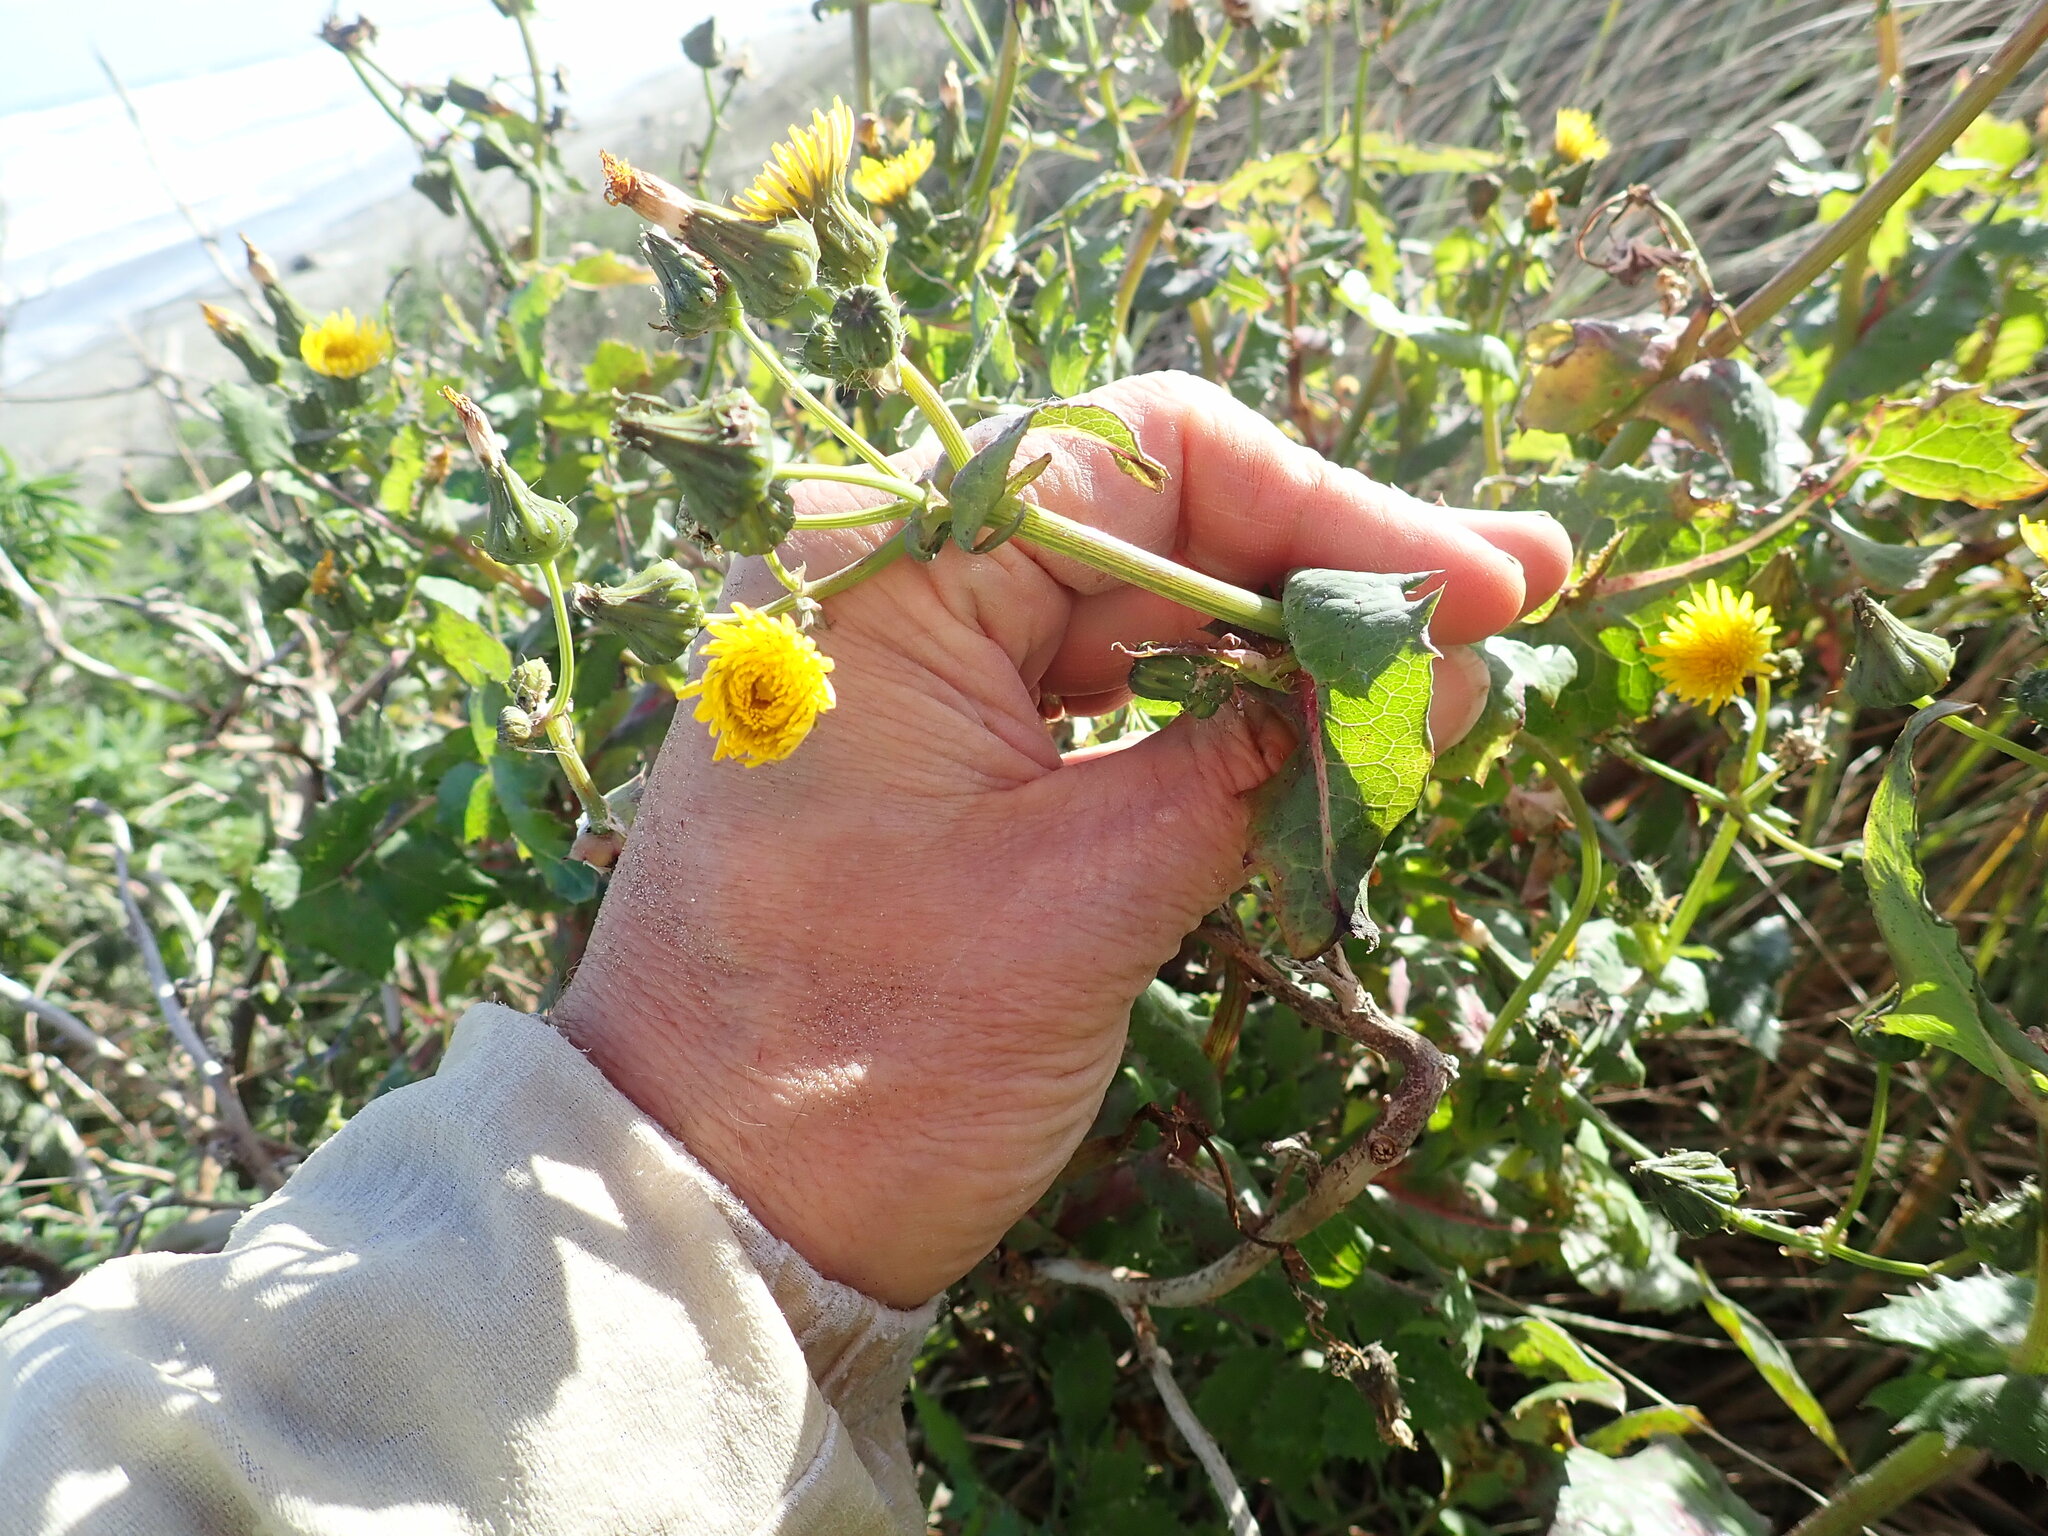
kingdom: Plantae
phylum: Tracheophyta
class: Magnoliopsida
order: Asterales
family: Asteraceae
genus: Sonchus
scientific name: Sonchus oleraceus
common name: Common sowthistle
